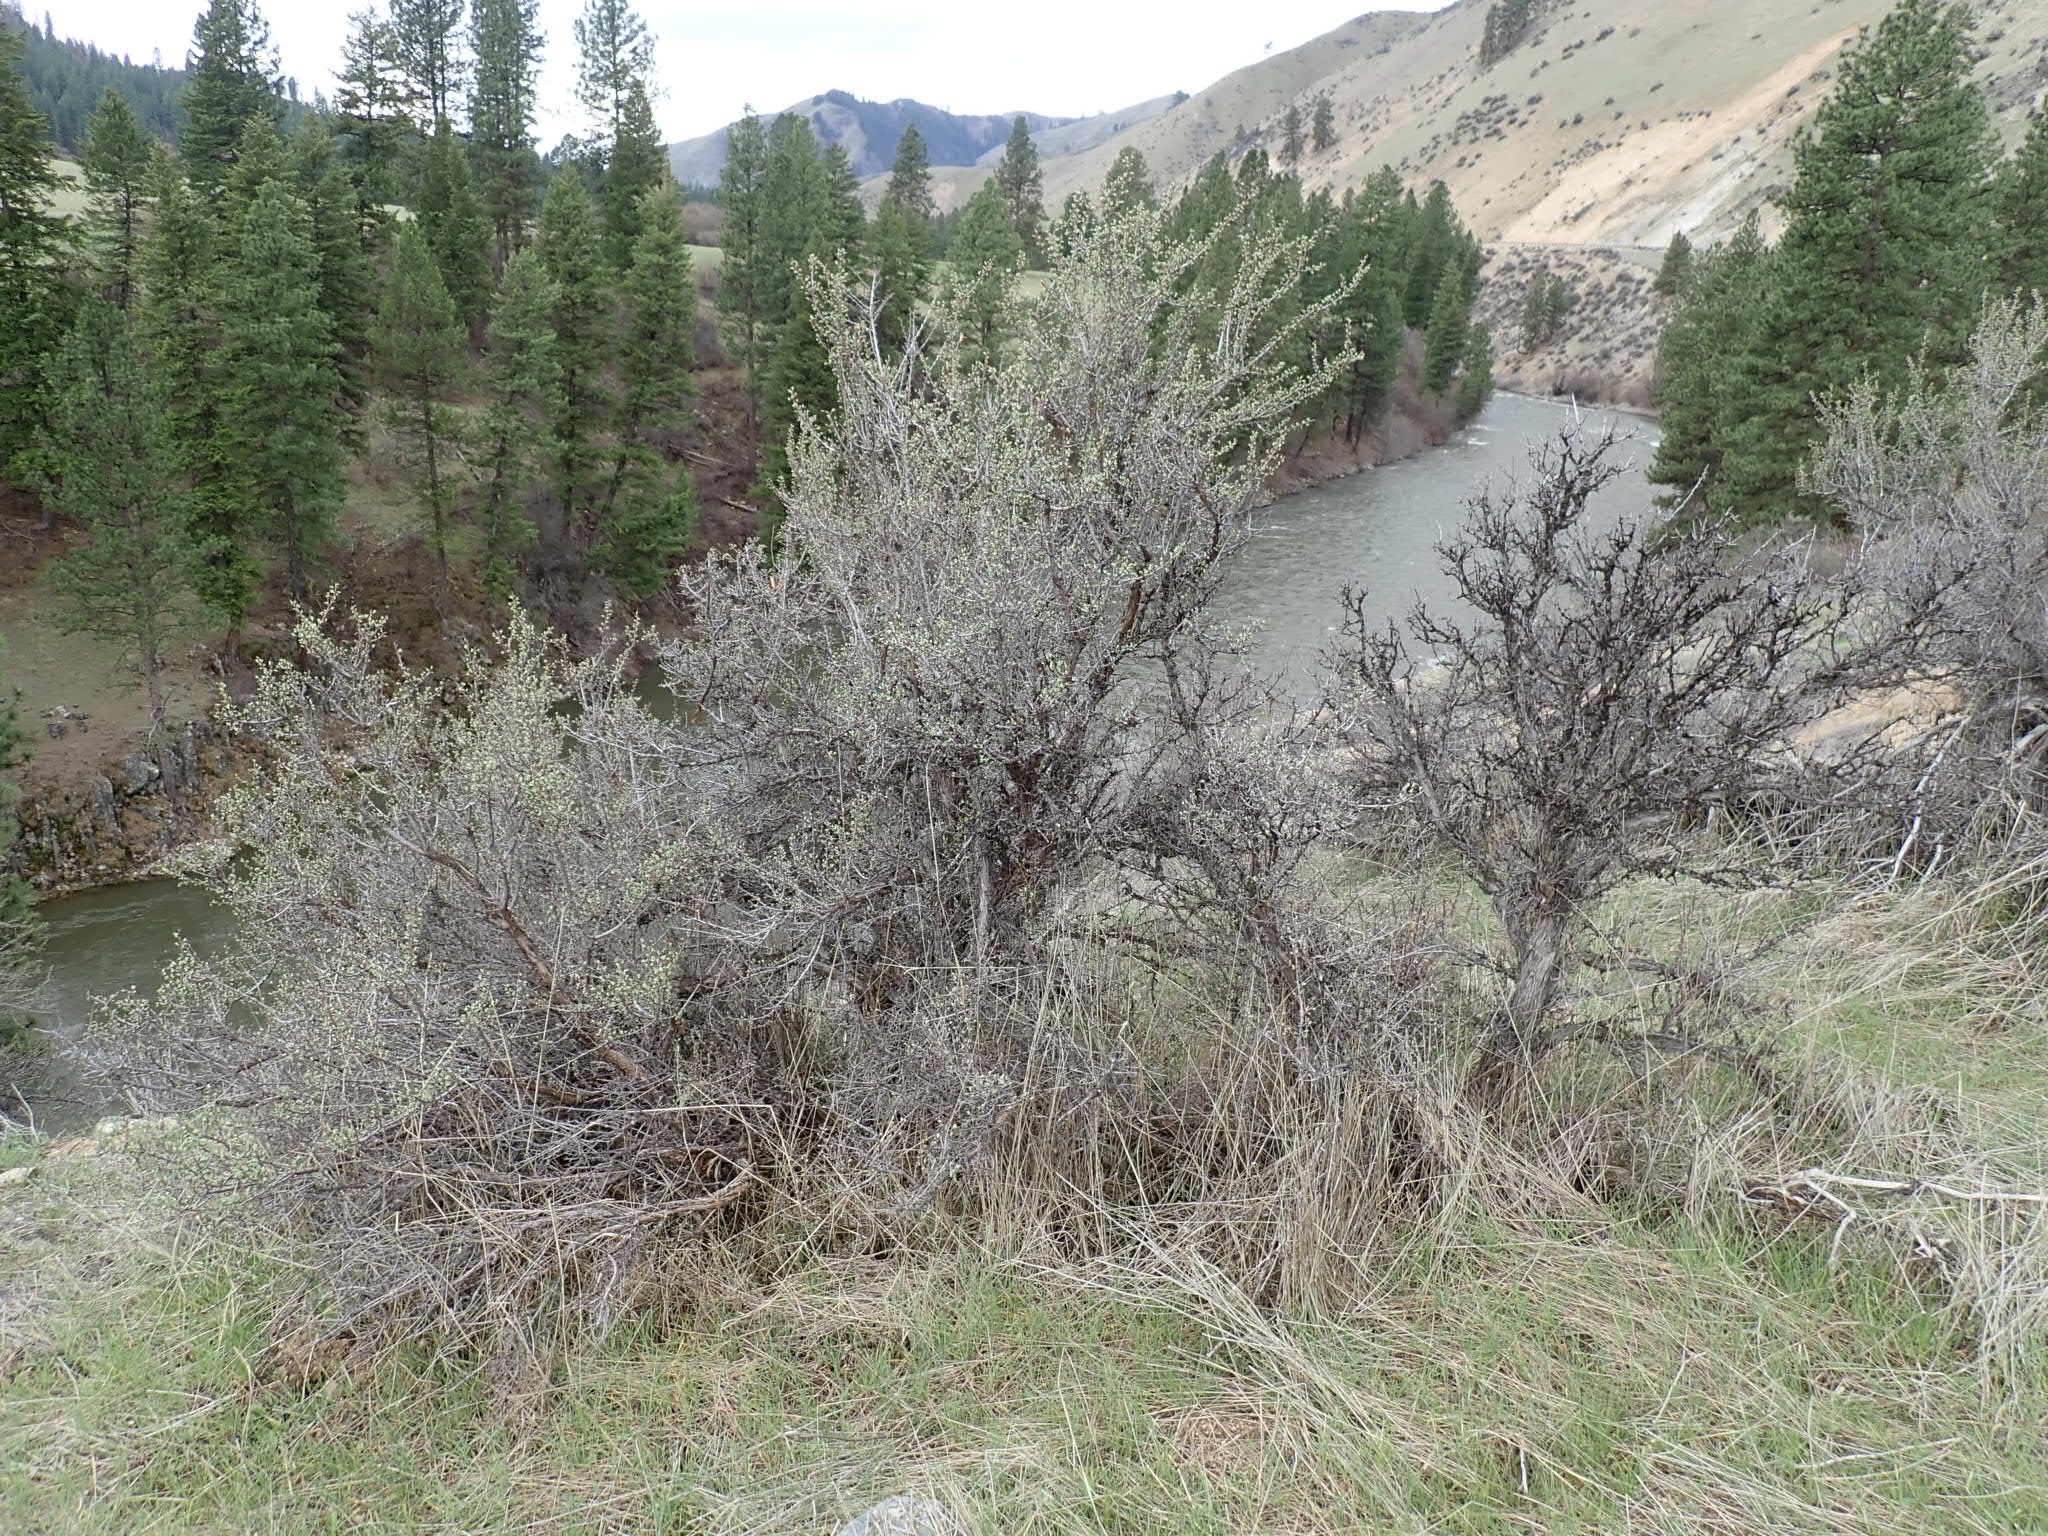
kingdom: Plantae
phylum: Tracheophyta
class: Magnoliopsida
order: Rosales
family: Rosaceae
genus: Purshia
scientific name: Purshia tridentata
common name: Antelope bitterbrush
